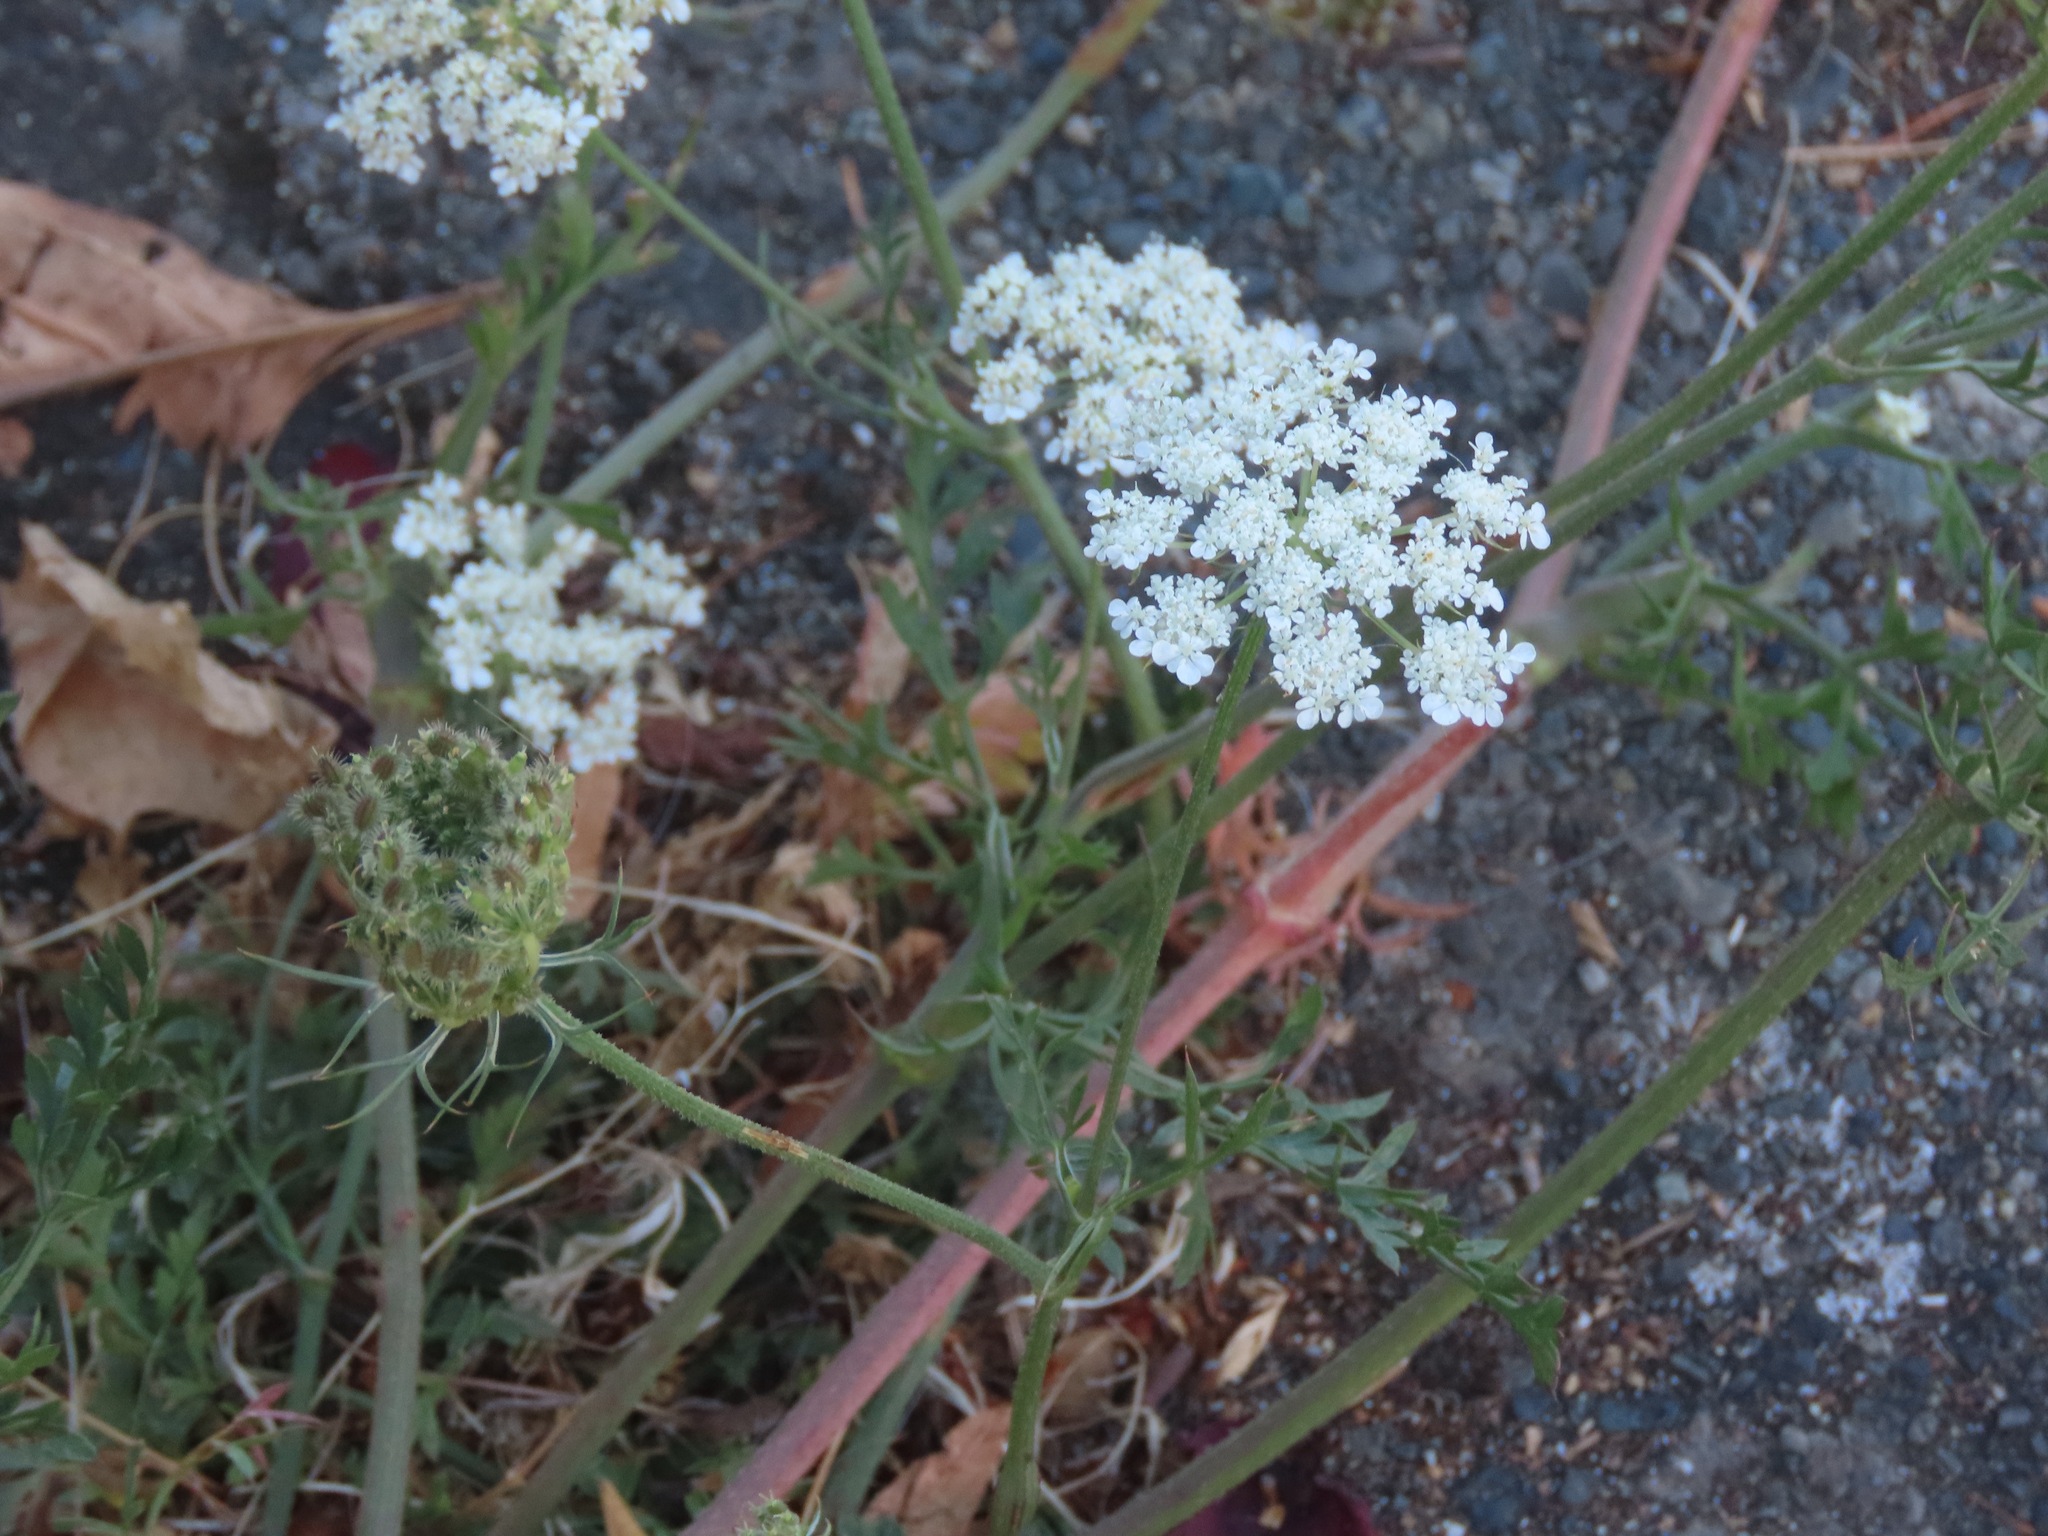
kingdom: Plantae
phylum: Tracheophyta
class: Magnoliopsida
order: Apiales
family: Apiaceae
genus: Daucus
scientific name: Daucus carota
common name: Wild carrot
